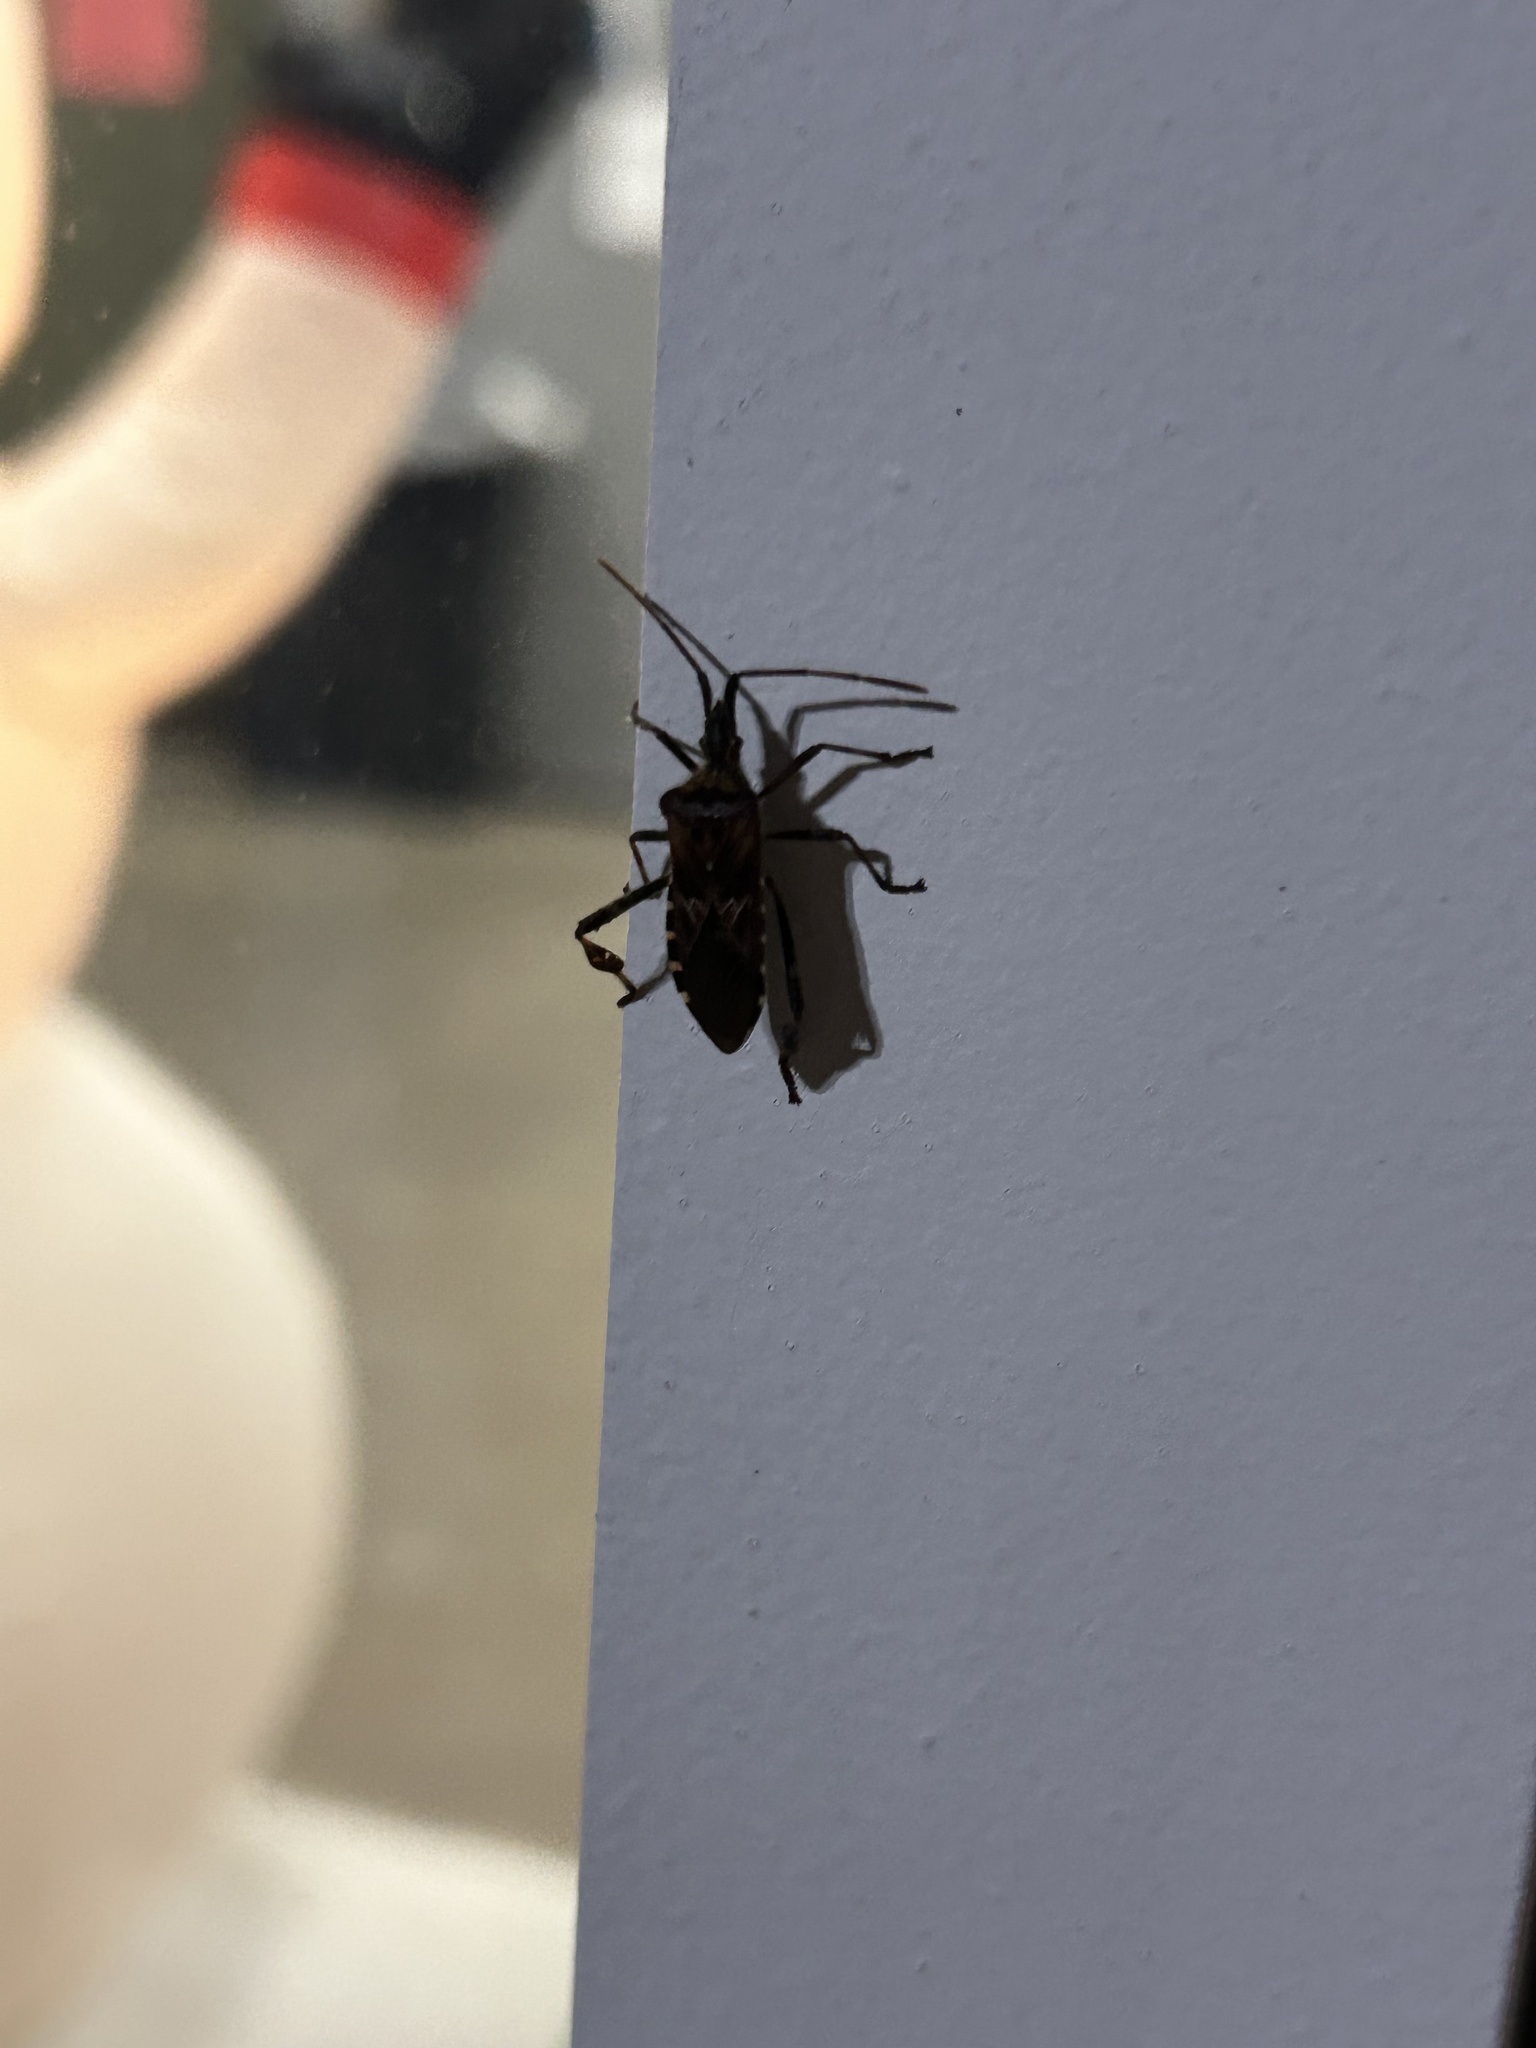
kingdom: Animalia
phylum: Arthropoda
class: Insecta
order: Hemiptera
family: Coreidae
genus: Leptoglossus
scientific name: Leptoglossus occidentalis
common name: Western conifer-seed bug
